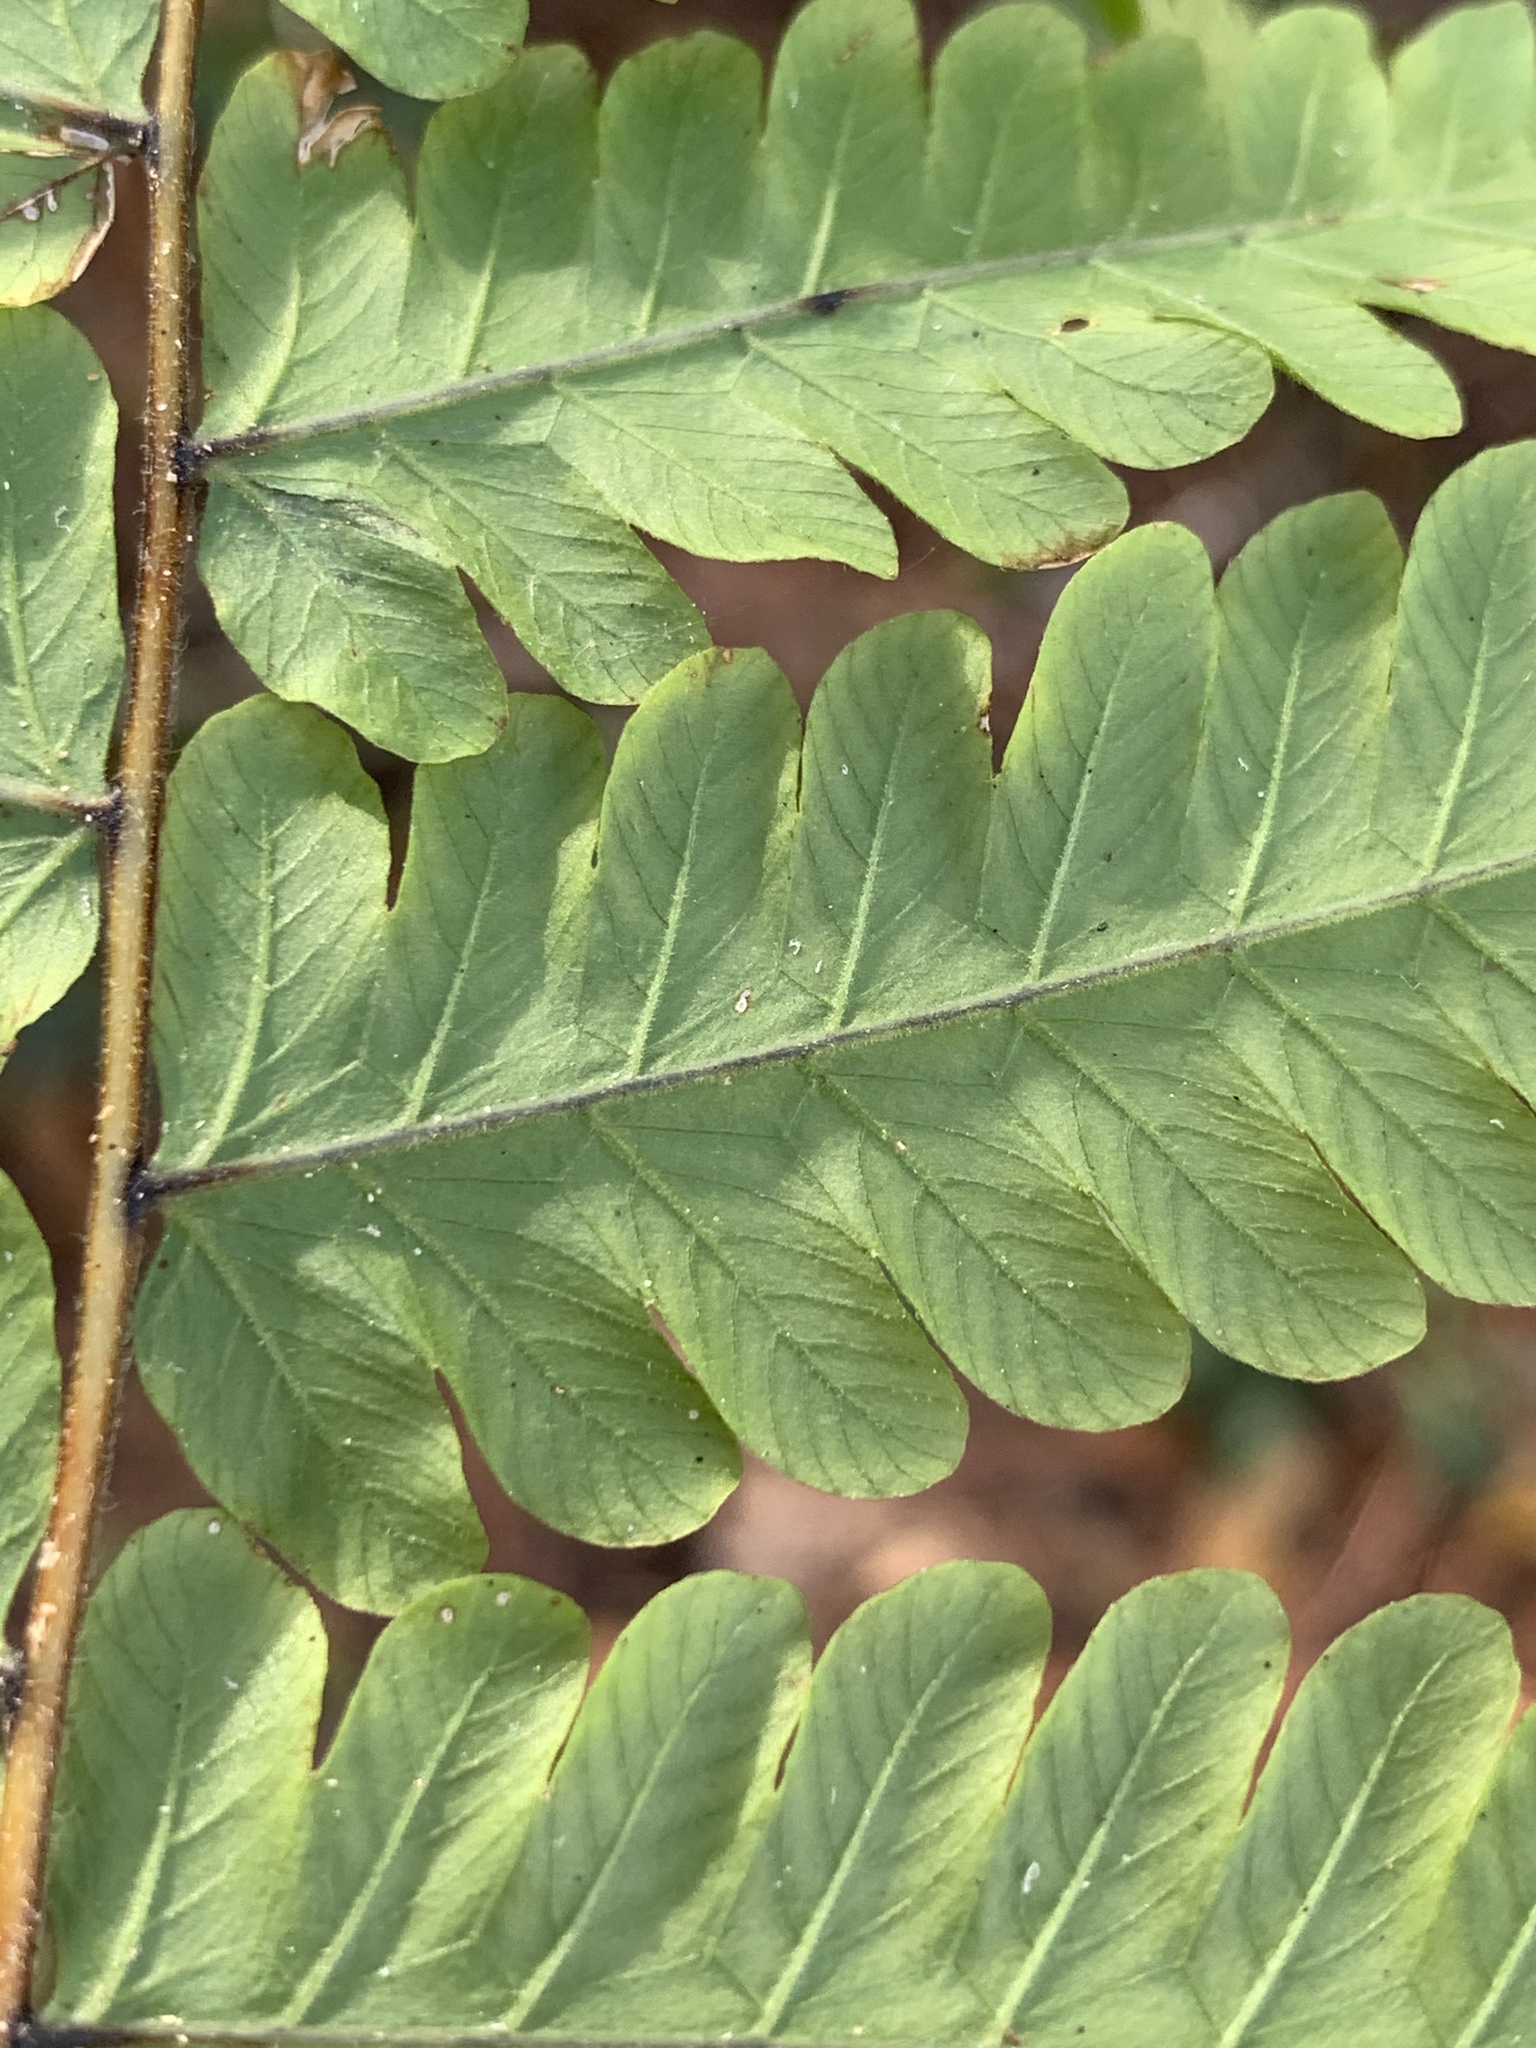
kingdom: Plantae
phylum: Tracheophyta
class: Polypodiopsida
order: Polypodiales
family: Thelypteridaceae
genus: Christella
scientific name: Christella dentata
